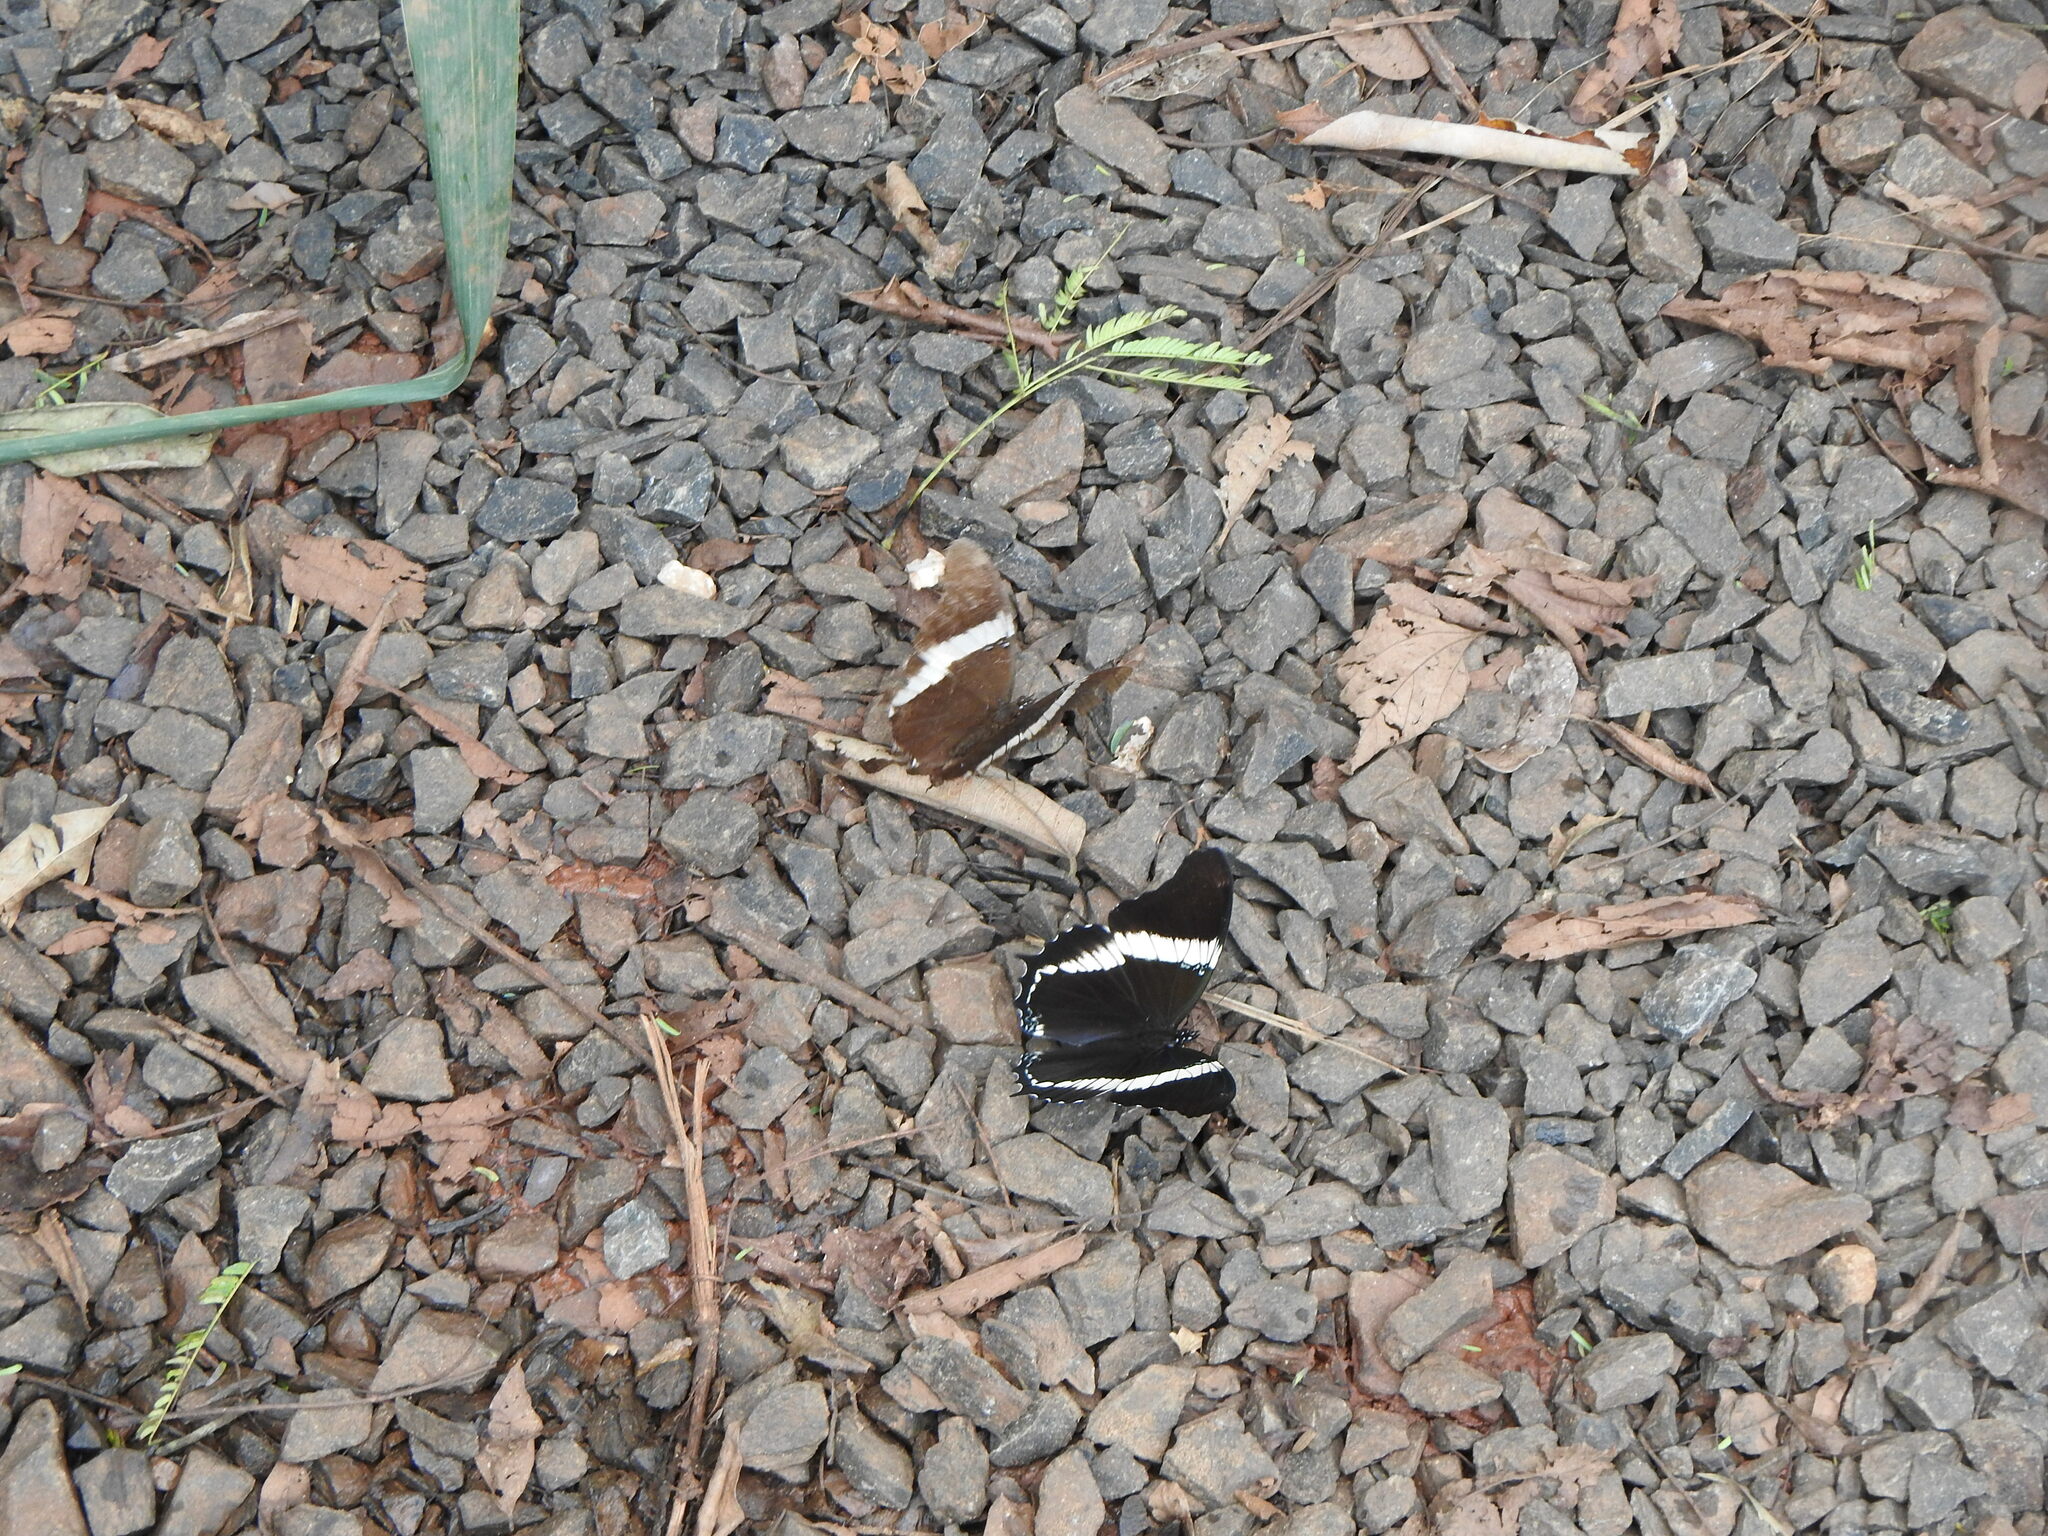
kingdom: Animalia
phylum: Arthropoda
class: Insecta
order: Lepidoptera
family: Nymphalidae
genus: Siproeta
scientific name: Siproeta epaphus
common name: Rusty-tipped page
